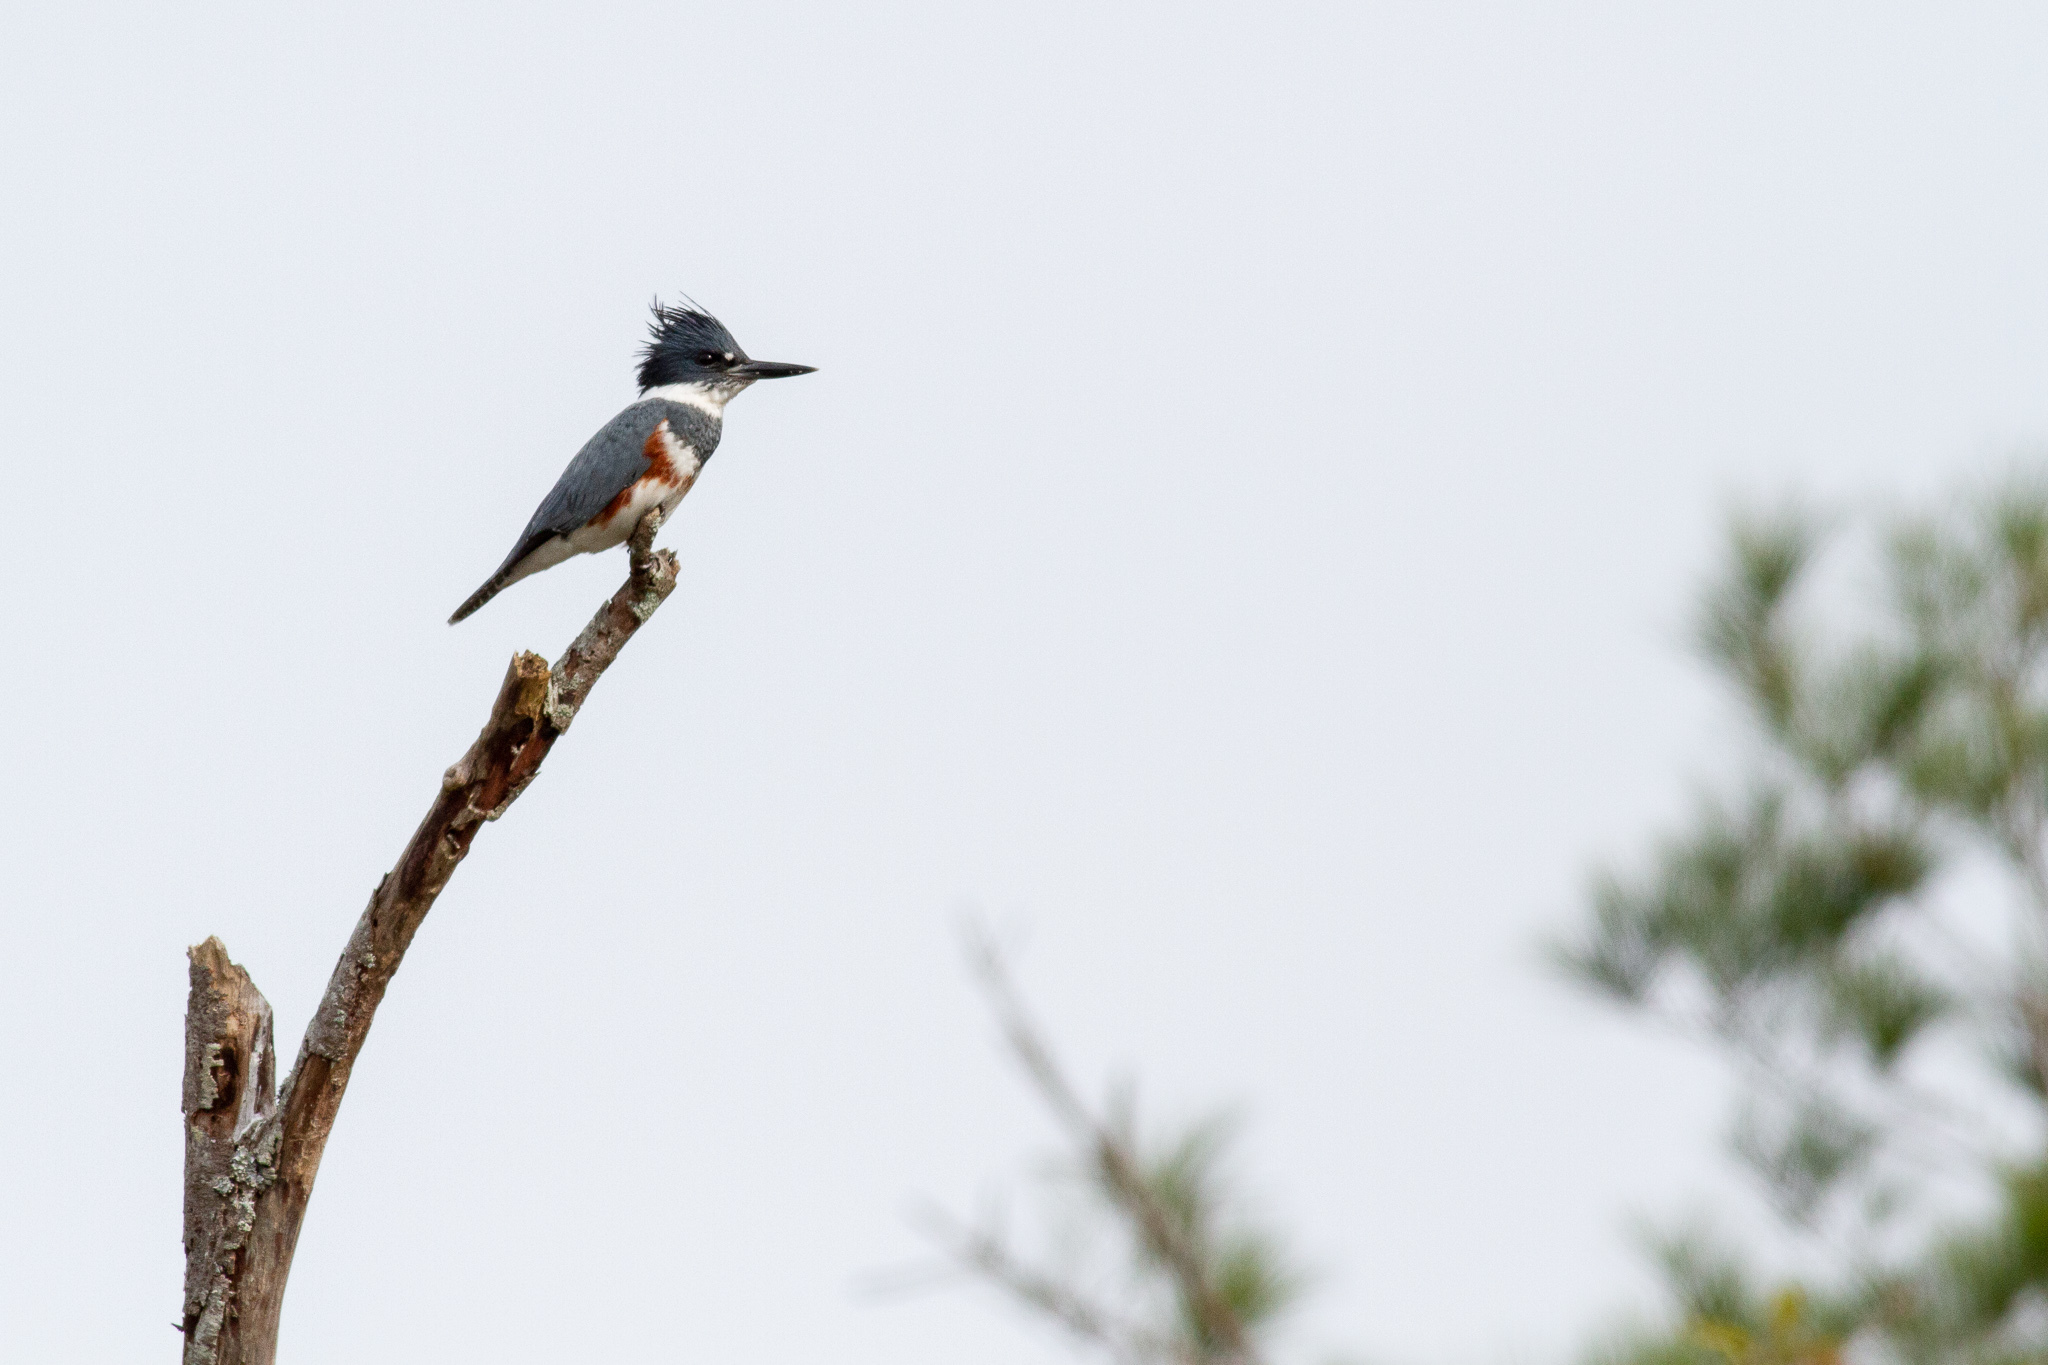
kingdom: Animalia
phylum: Chordata
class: Aves
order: Coraciiformes
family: Alcedinidae
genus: Megaceryle
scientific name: Megaceryle alcyon
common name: Belted kingfisher
